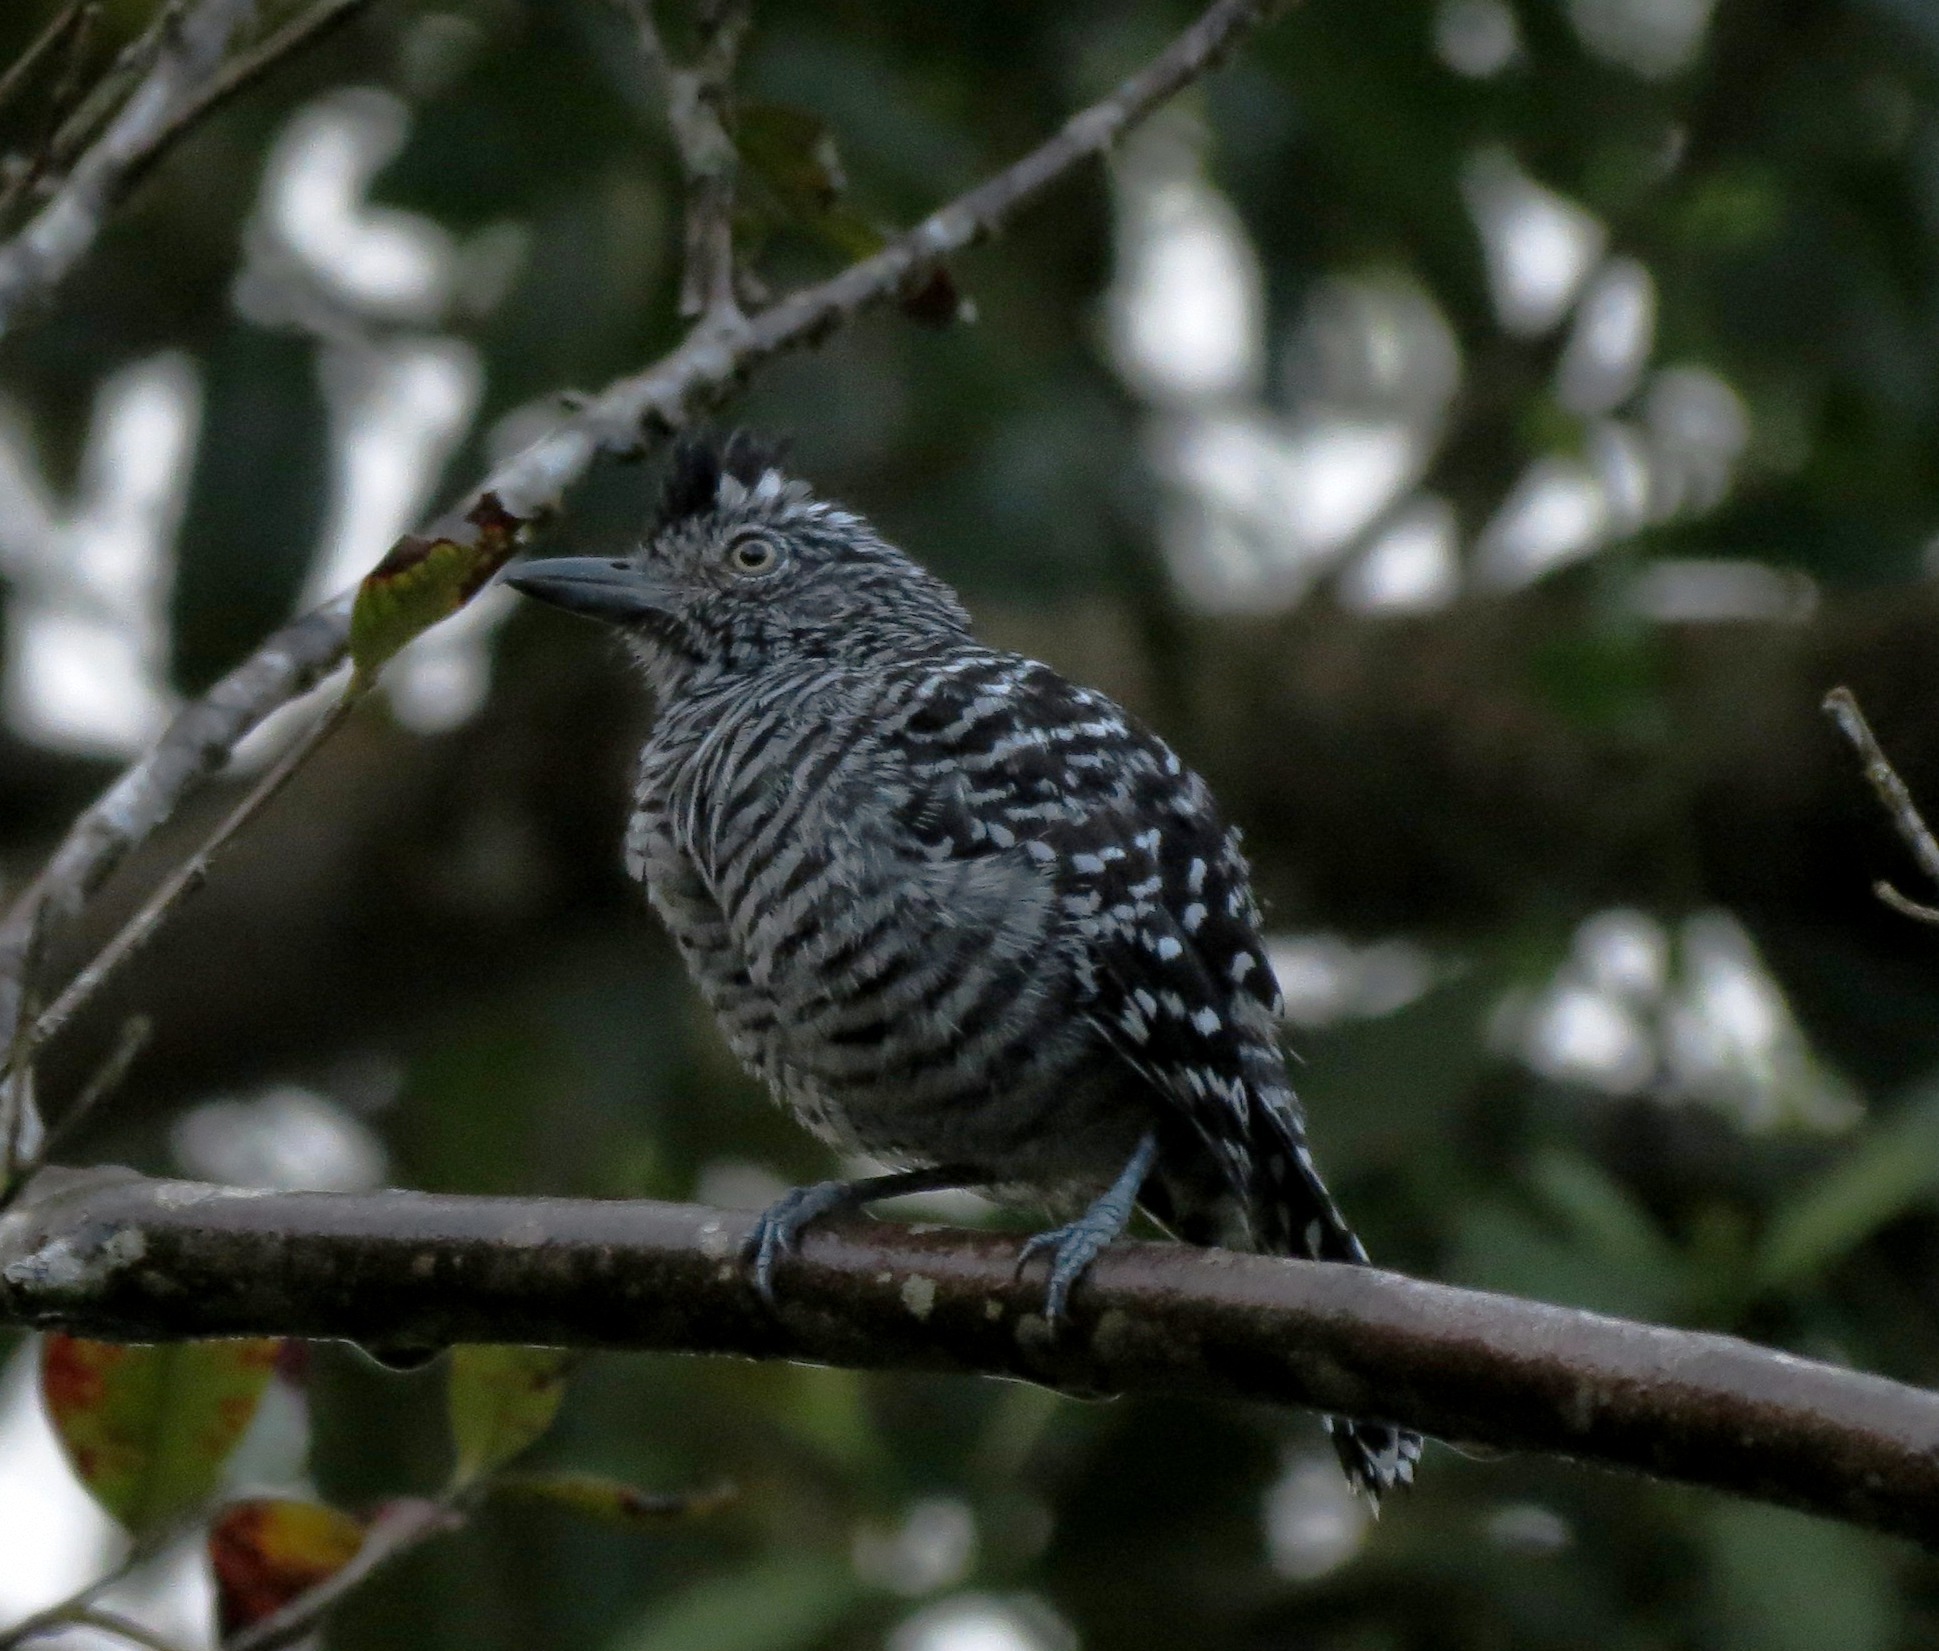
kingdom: Animalia
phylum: Chordata
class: Aves
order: Passeriformes
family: Thamnophilidae
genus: Thamnophilus
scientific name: Thamnophilus doliatus
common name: Barred antshrike
